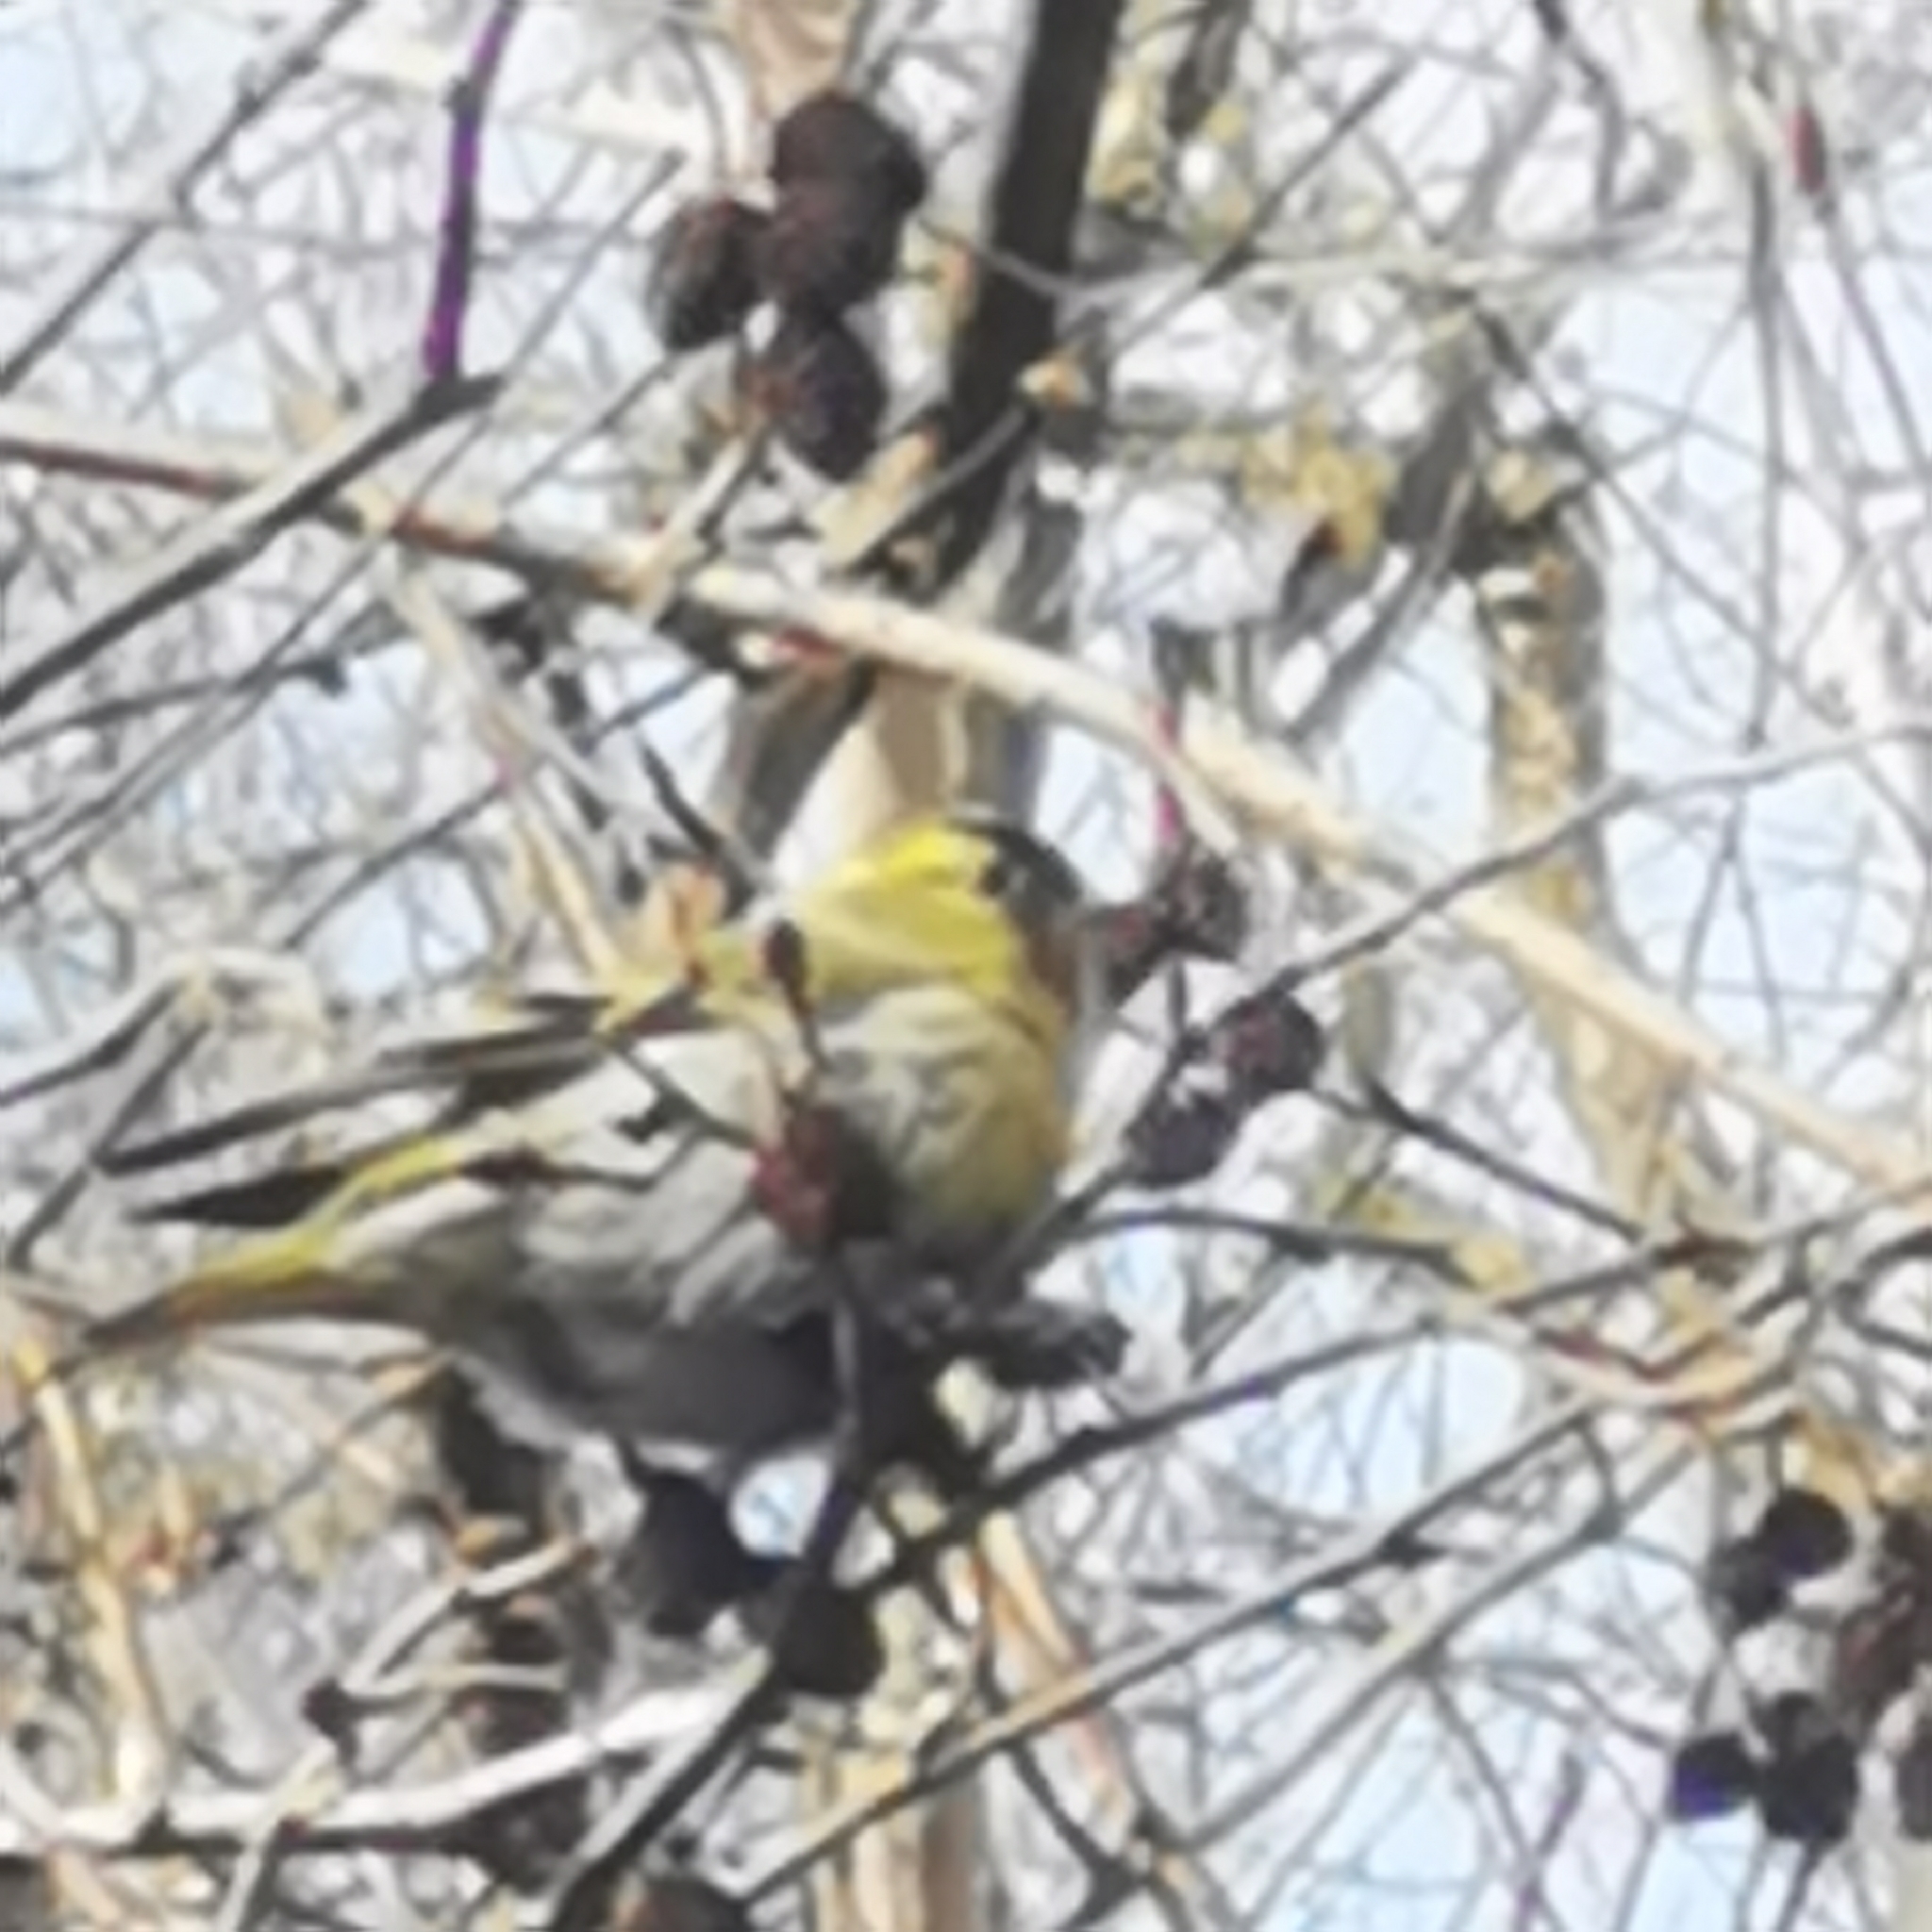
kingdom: Animalia
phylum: Chordata
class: Aves
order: Passeriformes
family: Fringillidae
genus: Spinus
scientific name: Spinus spinus
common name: Eurasian siskin
